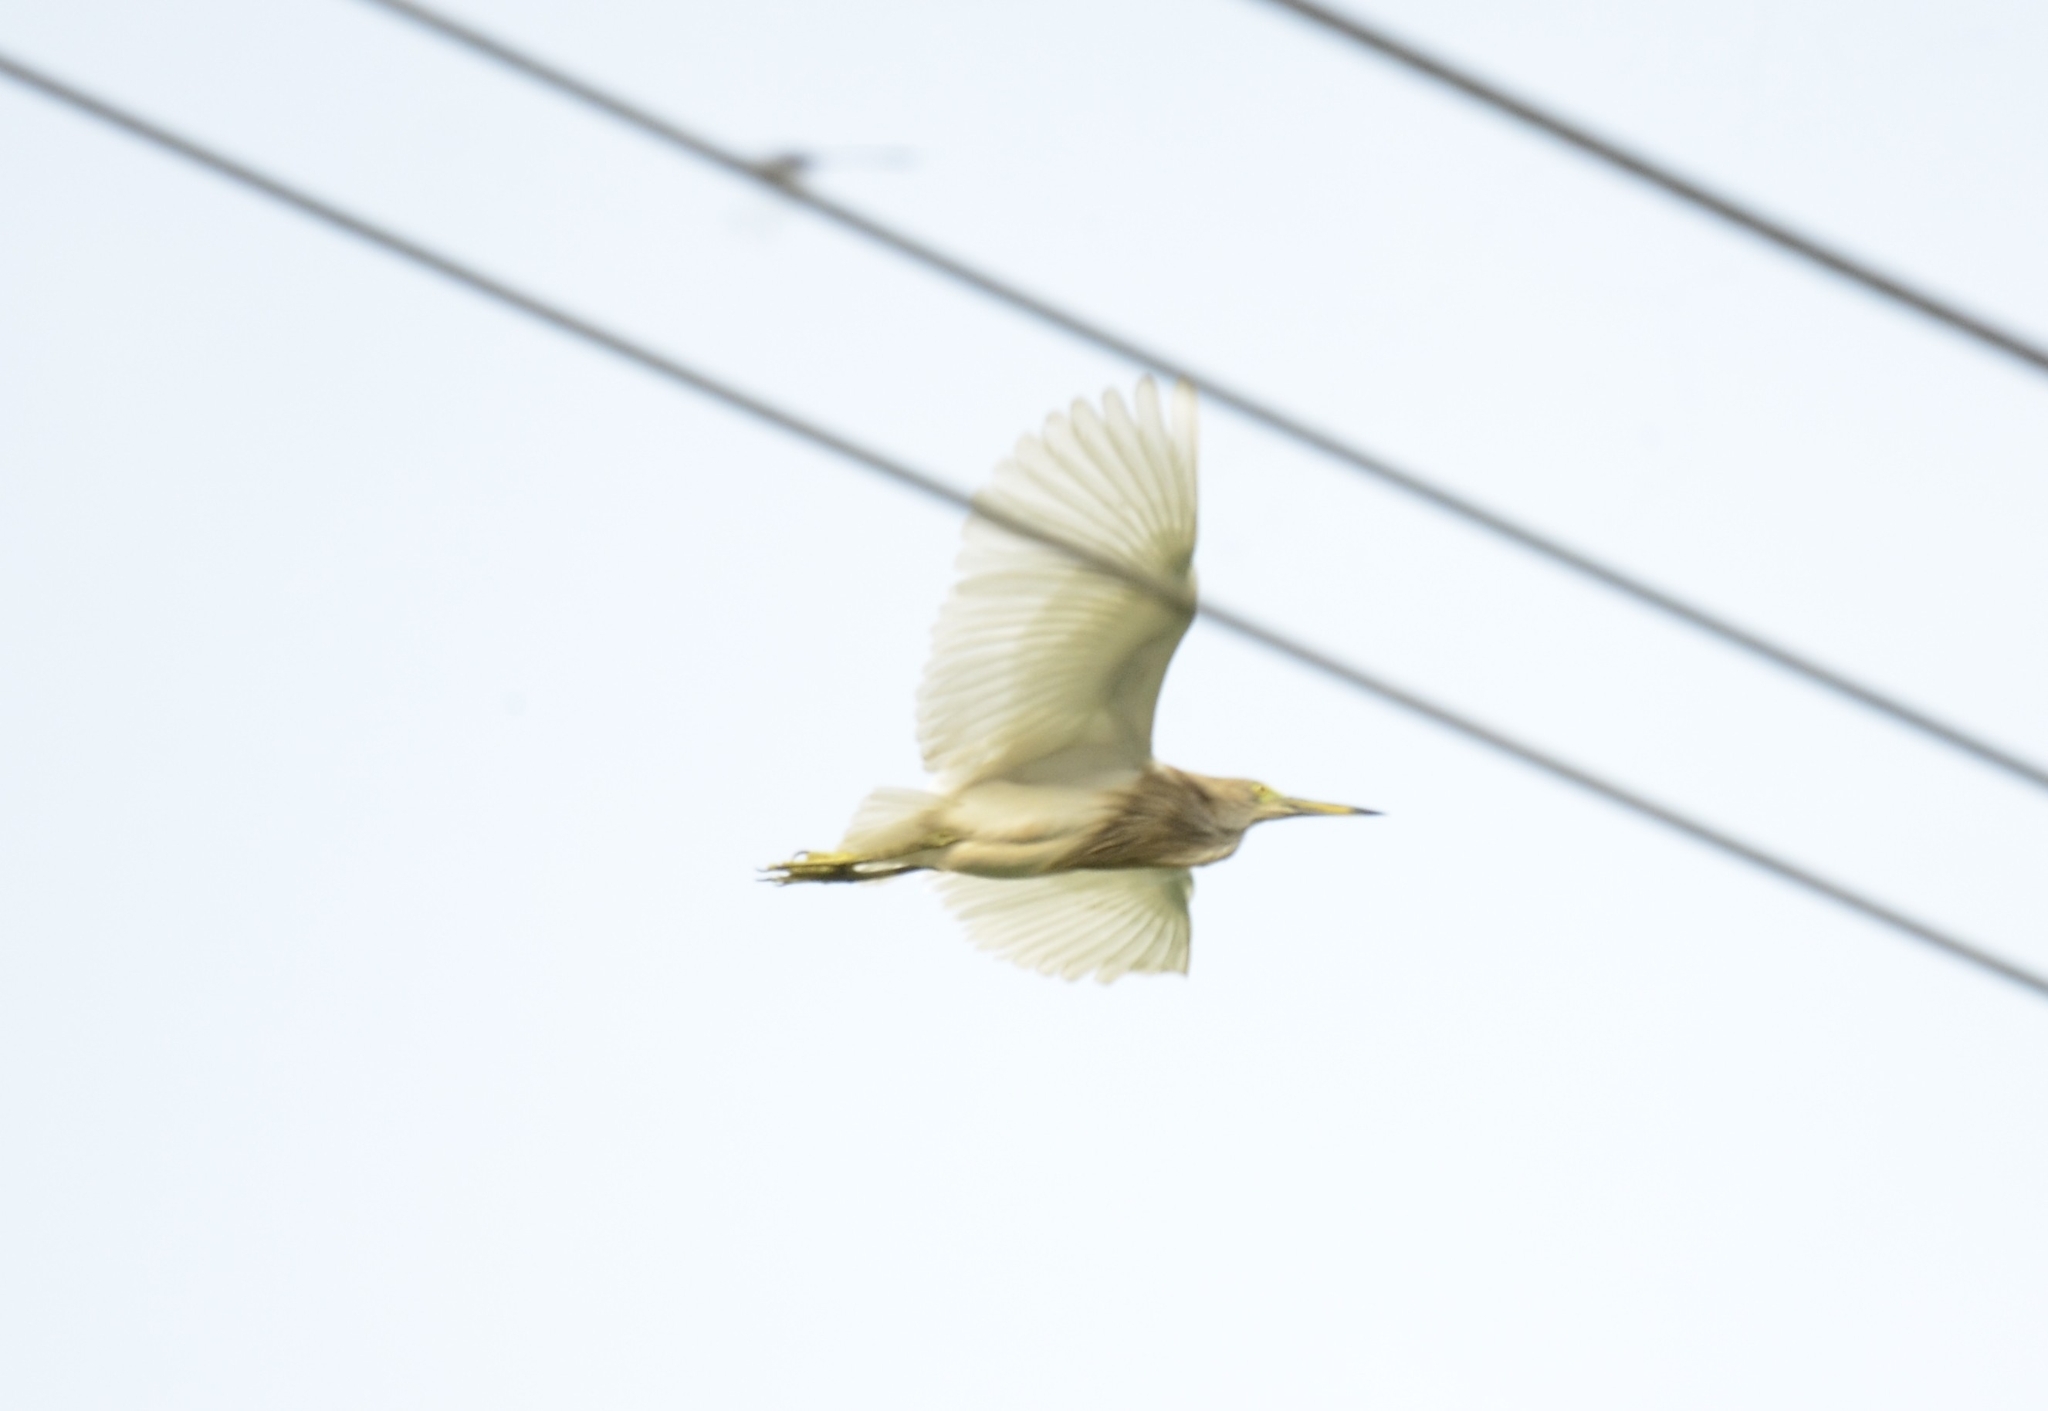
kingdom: Animalia
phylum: Chordata
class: Aves
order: Pelecaniformes
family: Ardeidae
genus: Ardeola
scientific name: Ardeola grayii
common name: Indian pond heron
